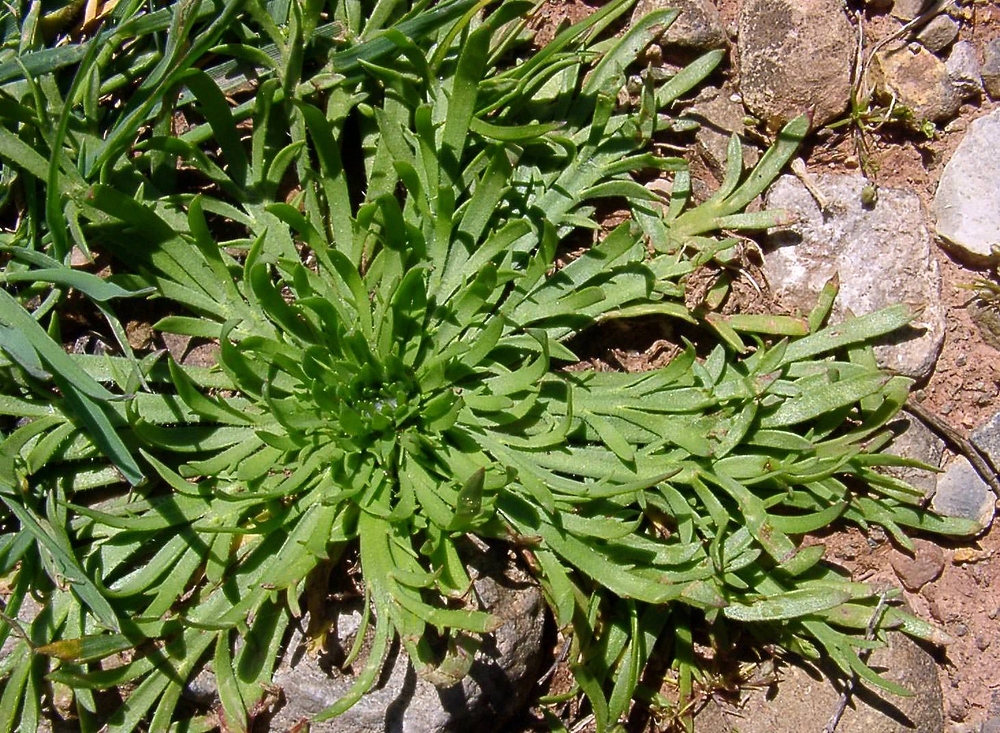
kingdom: Plantae
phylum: Tracheophyta
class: Magnoliopsida
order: Lamiales
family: Plantaginaceae
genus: Plantago
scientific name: Plantago coronopus
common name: Buck's-horn plantain
